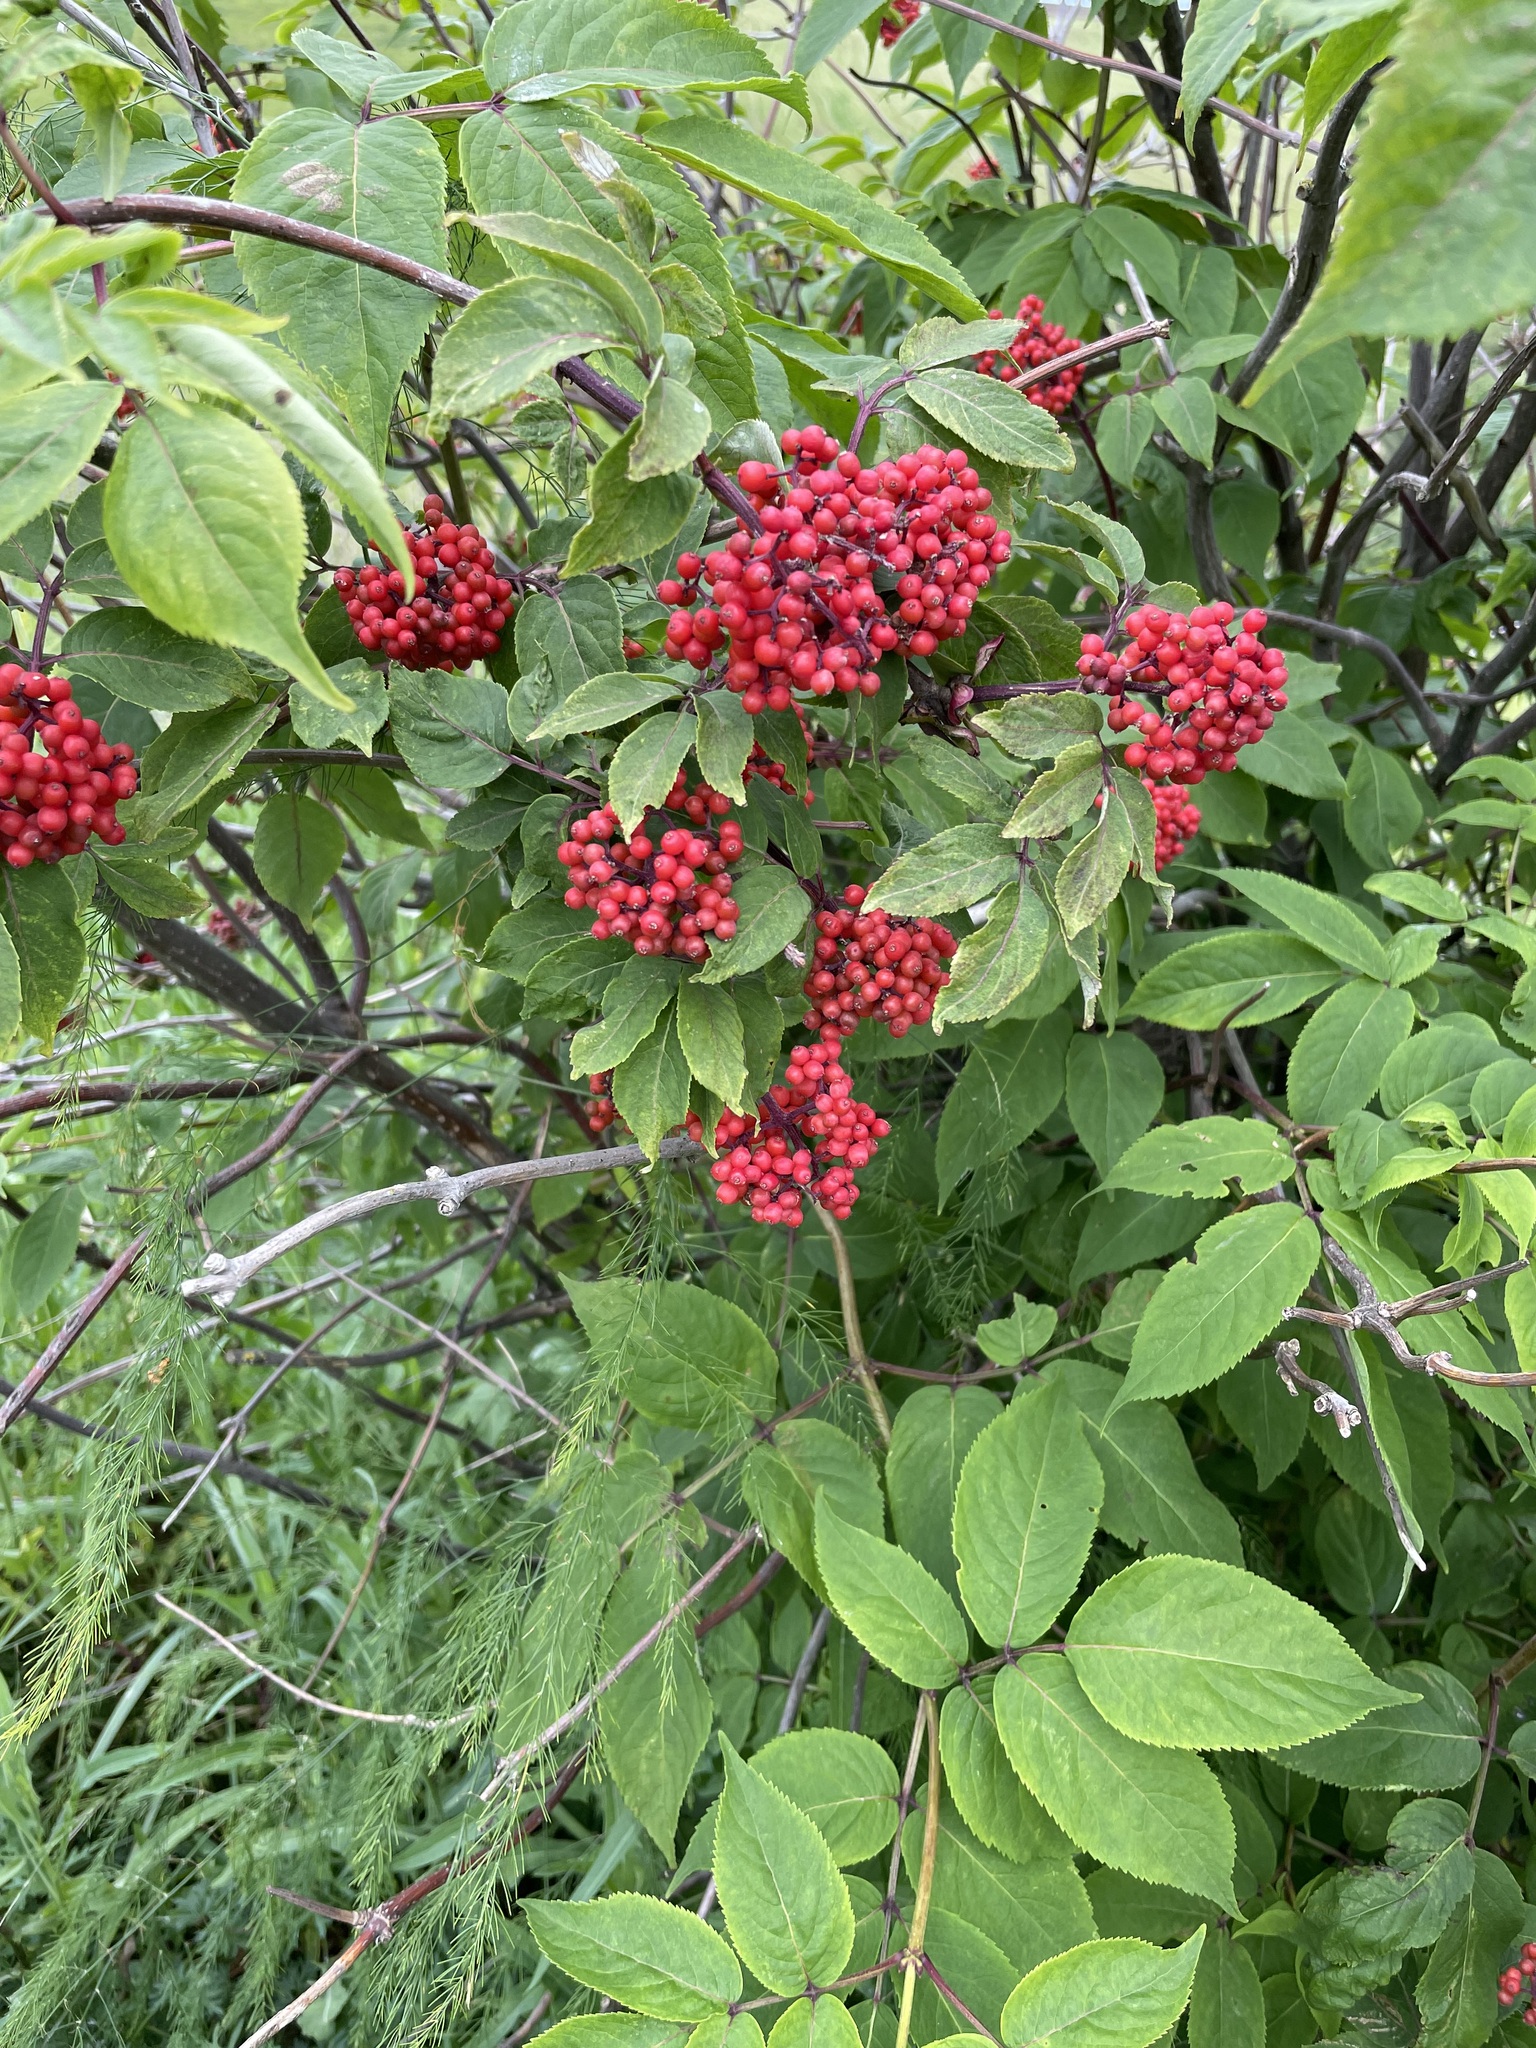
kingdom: Plantae
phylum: Tracheophyta
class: Magnoliopsida
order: Dipsacales
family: Viburnaceae
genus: Sambucus
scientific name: Sambucus racemosa
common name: Red-berried elder
